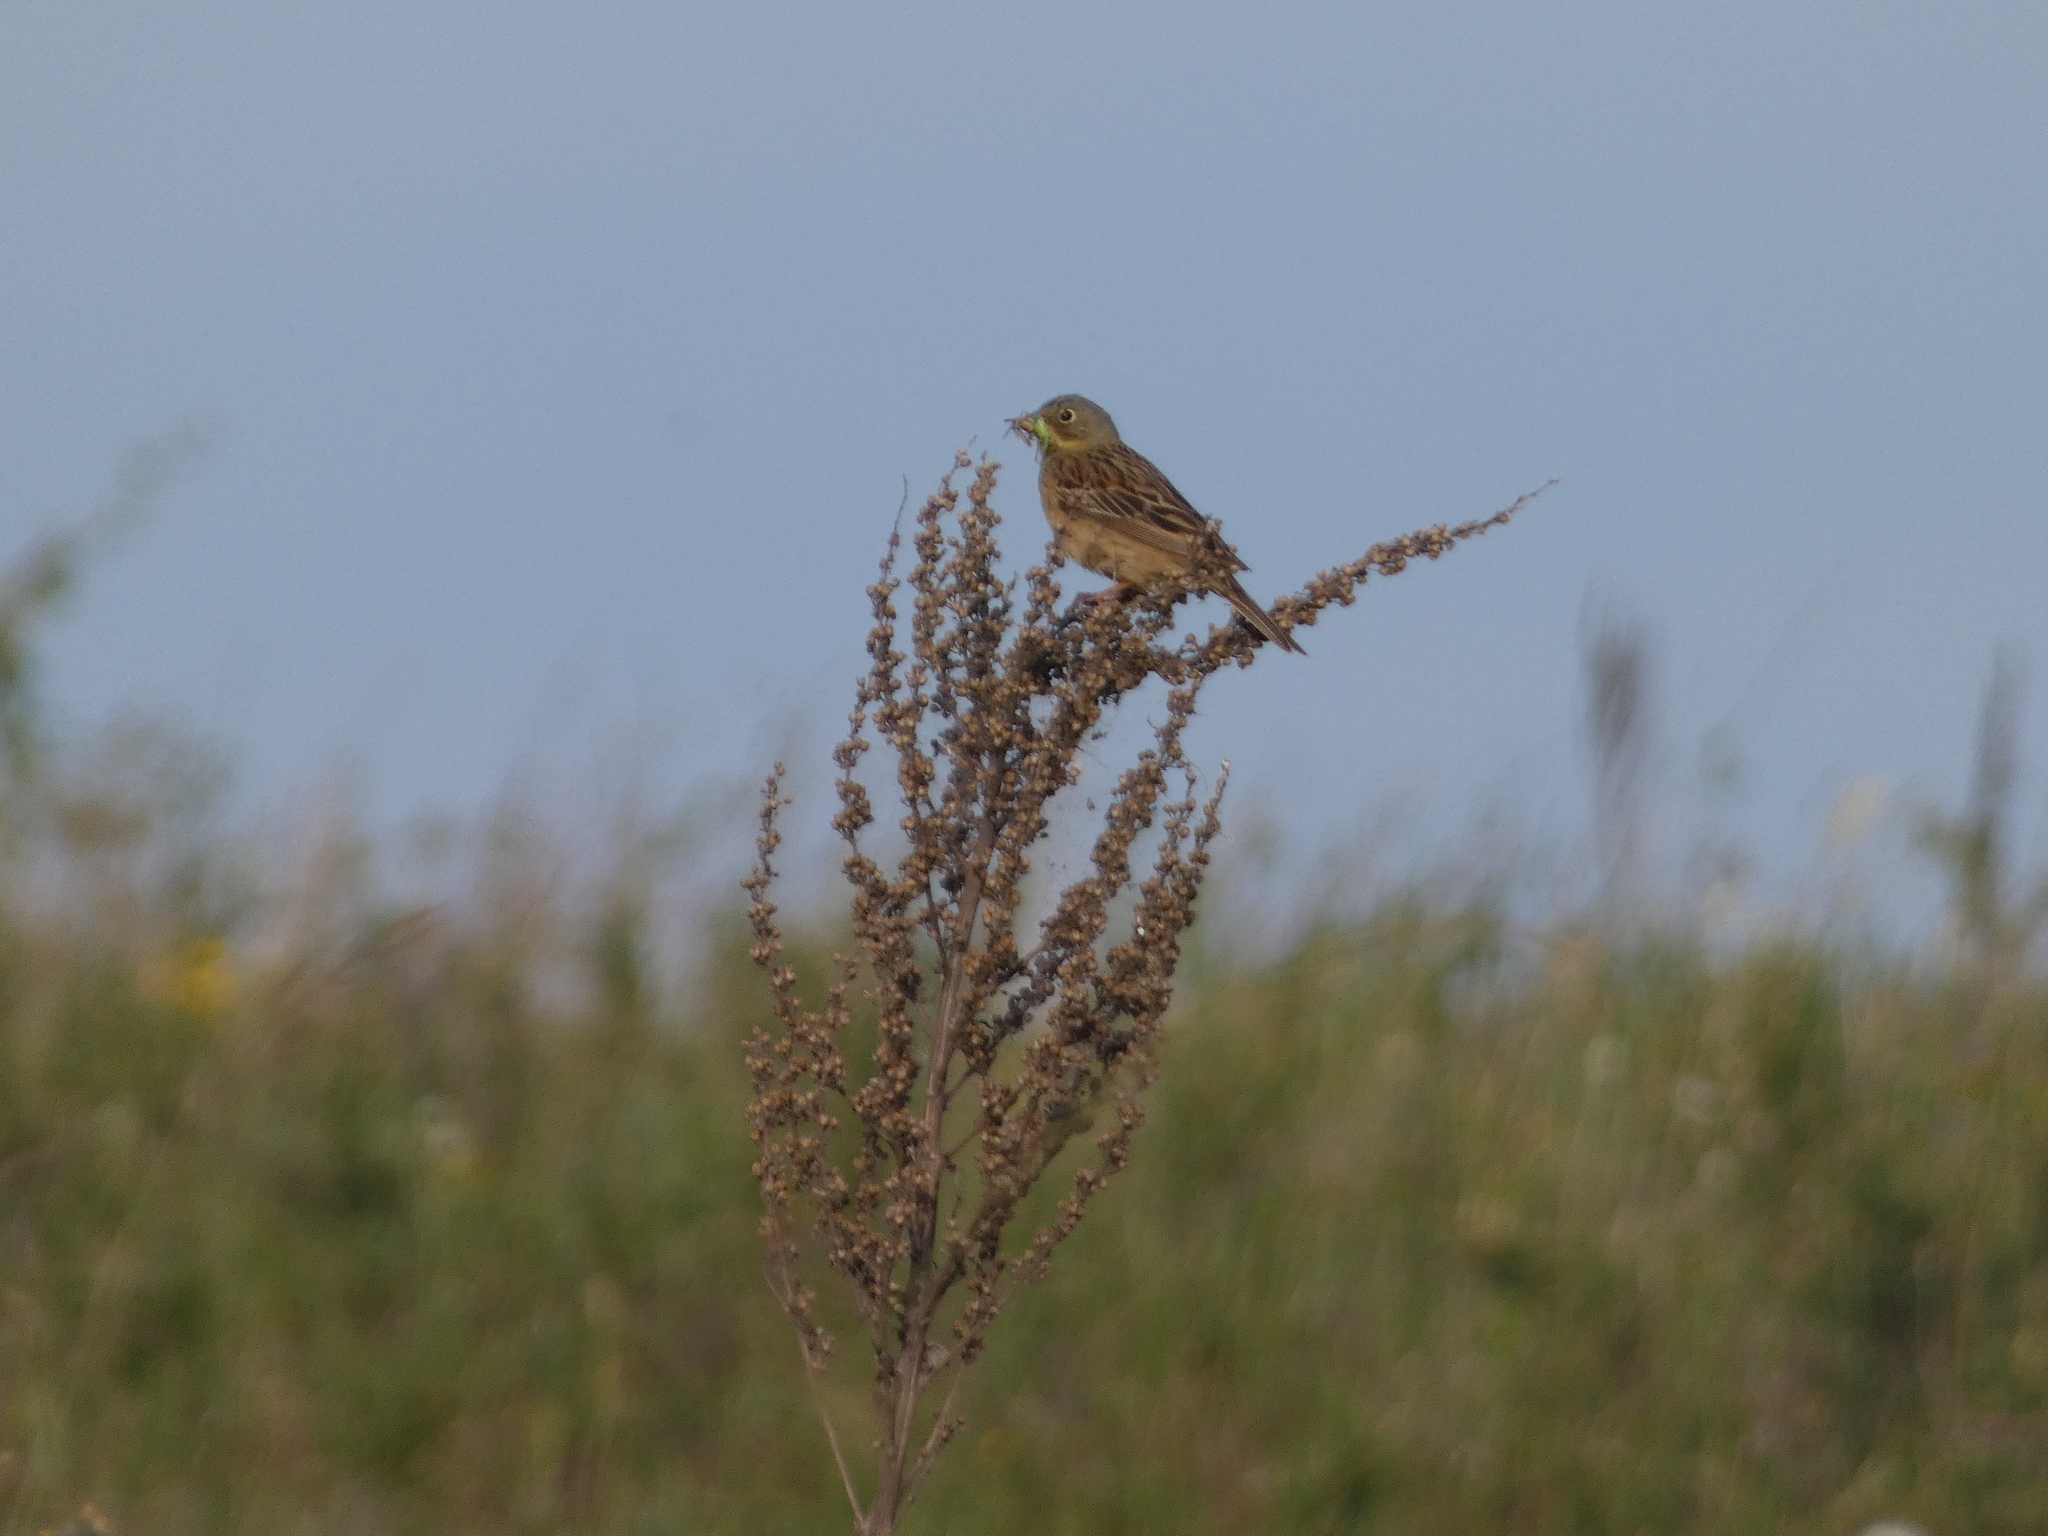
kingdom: Animalia
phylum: Chordata
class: Aves
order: Passeriformes
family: Emberizidae
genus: Emberiza
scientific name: Emberiza hortulana
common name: Ortolan bunting
